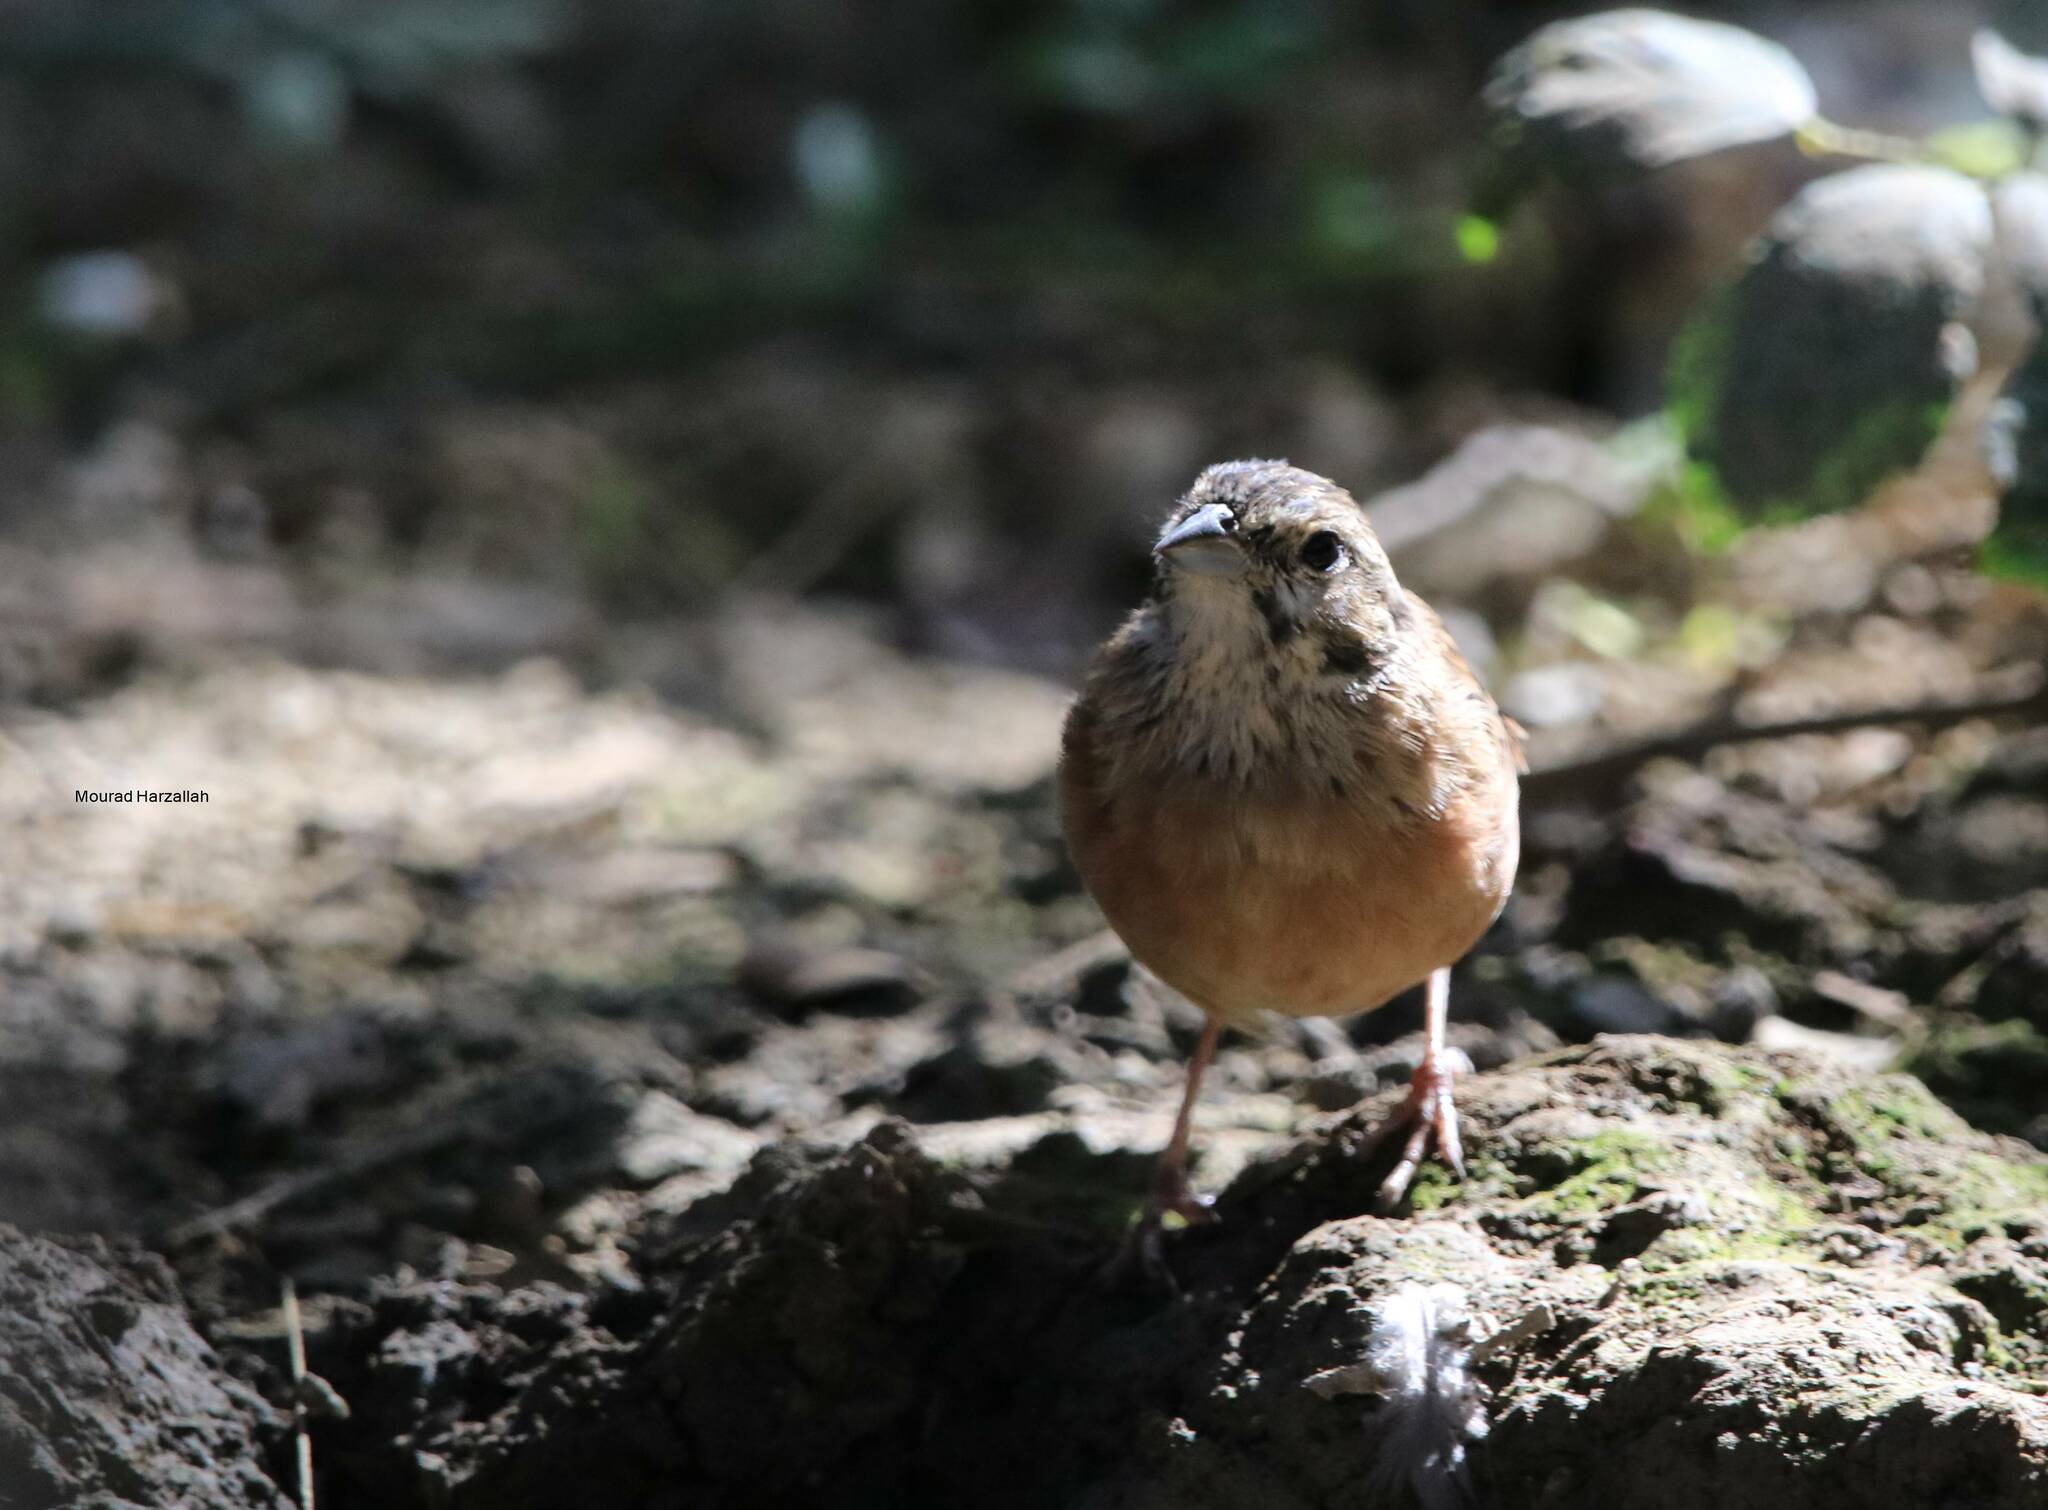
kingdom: Animalia
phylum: Chordata
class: Aves
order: Passeriformes
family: Emberizidae
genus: Emberiza
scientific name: Emberiza cia
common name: Rock bunting
